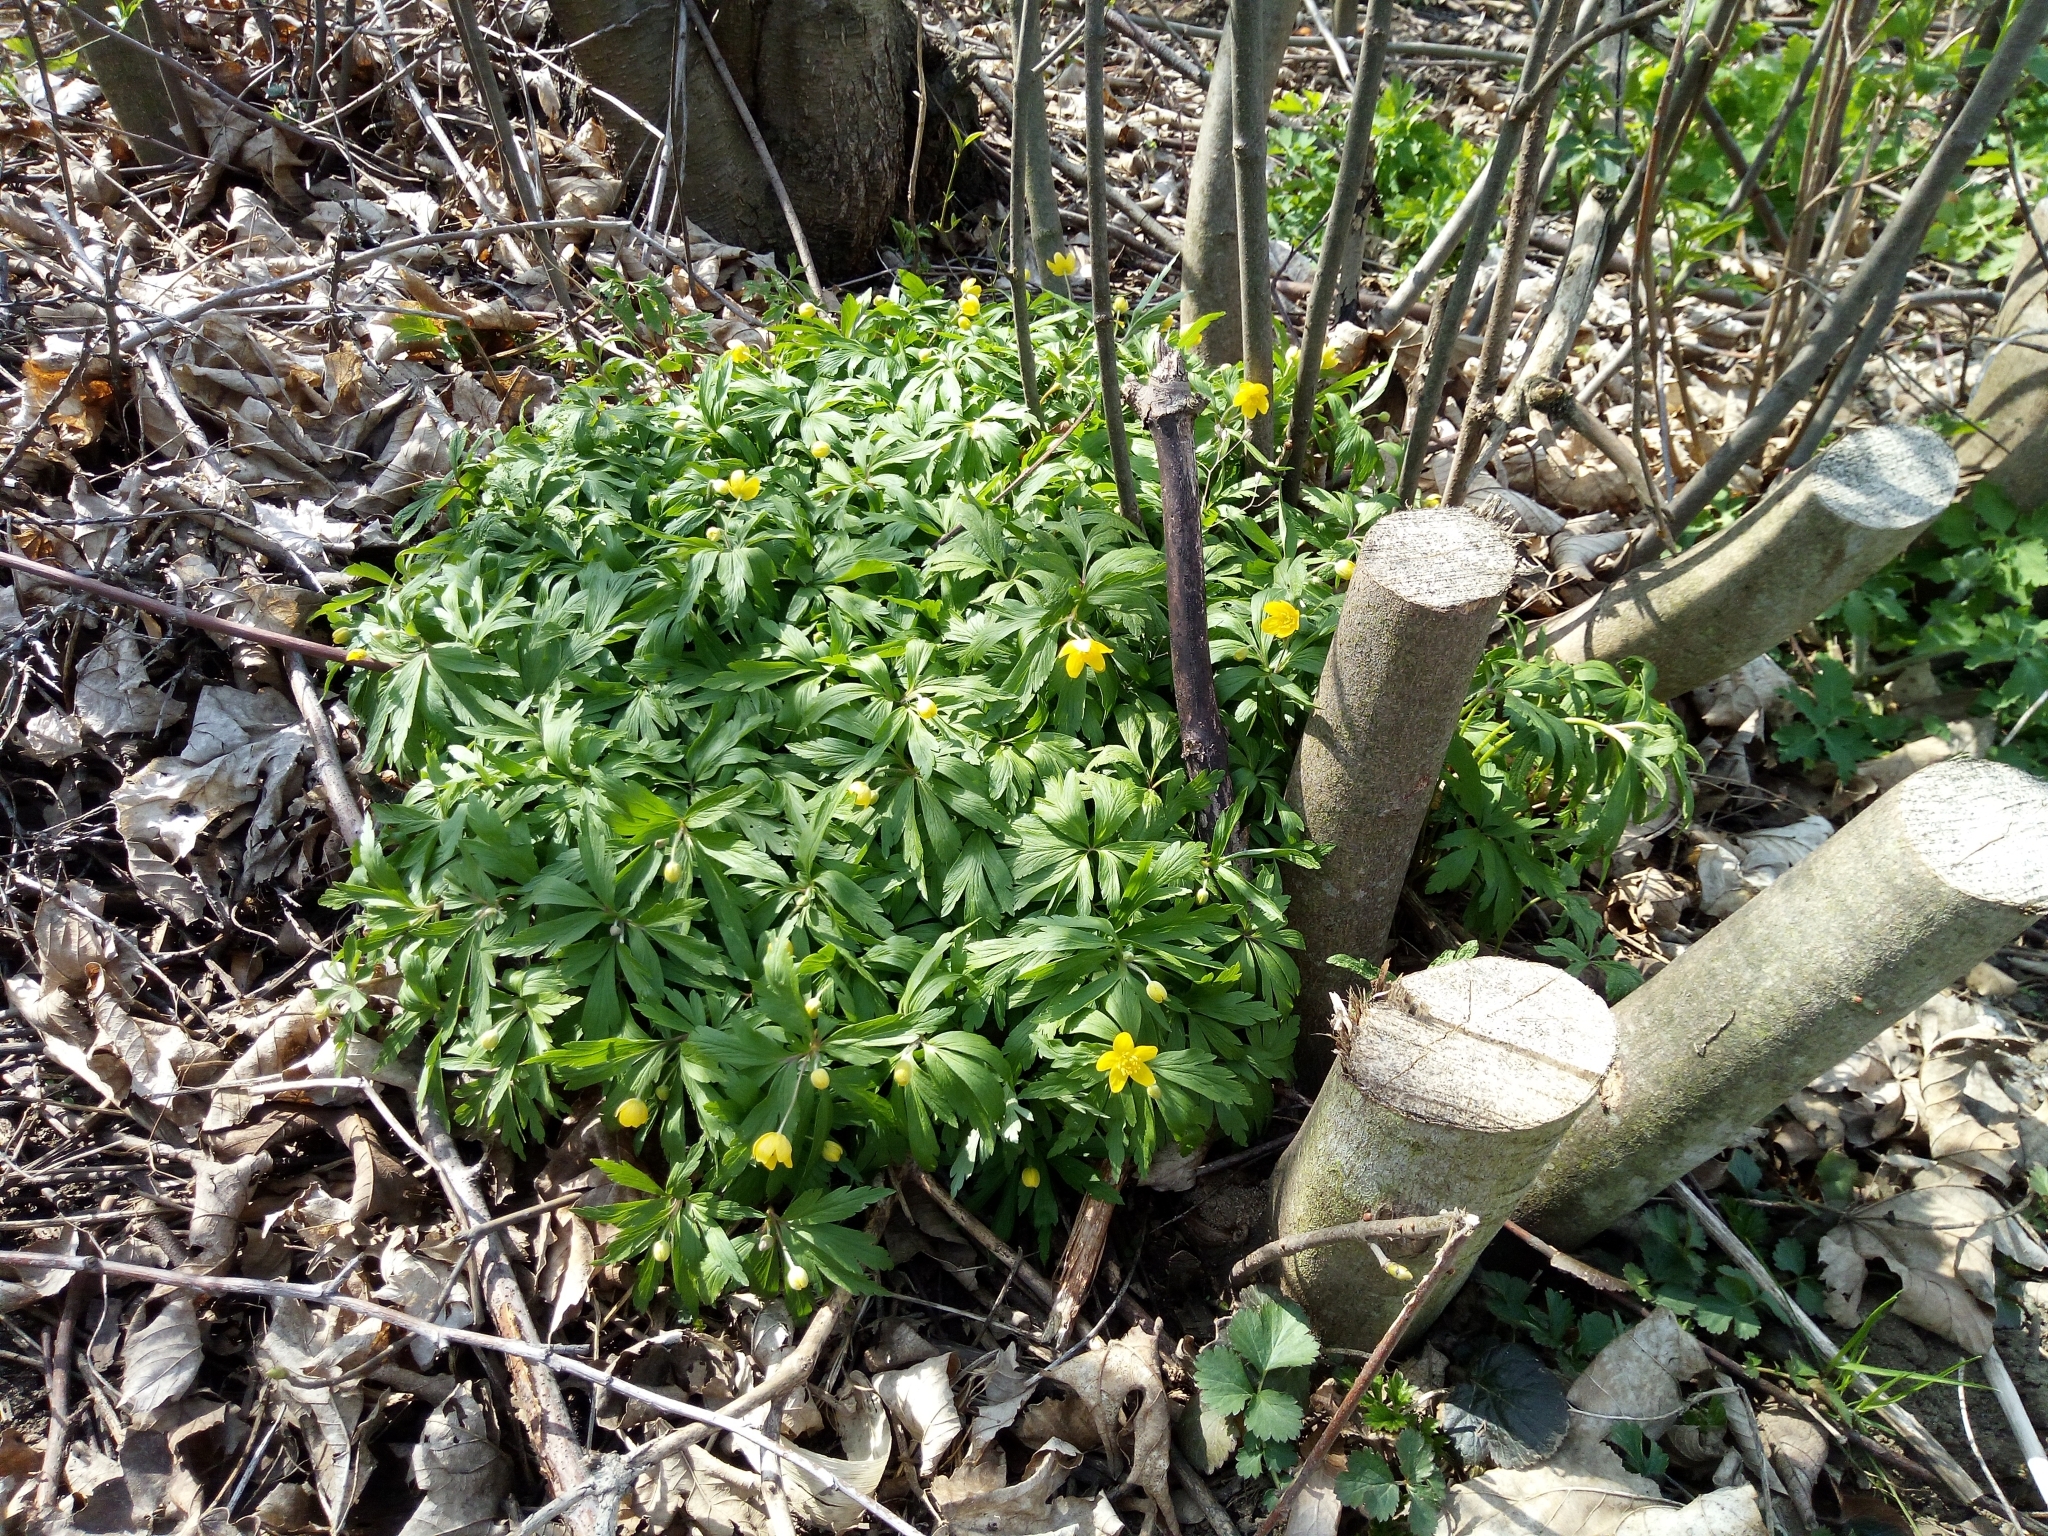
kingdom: Plantae
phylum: Tracheophyta
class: Magnoliopsida
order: Ranunculales
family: Ranunculaceae
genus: Anemone
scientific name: Anemone ranunculoides
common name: Yellow anemone
